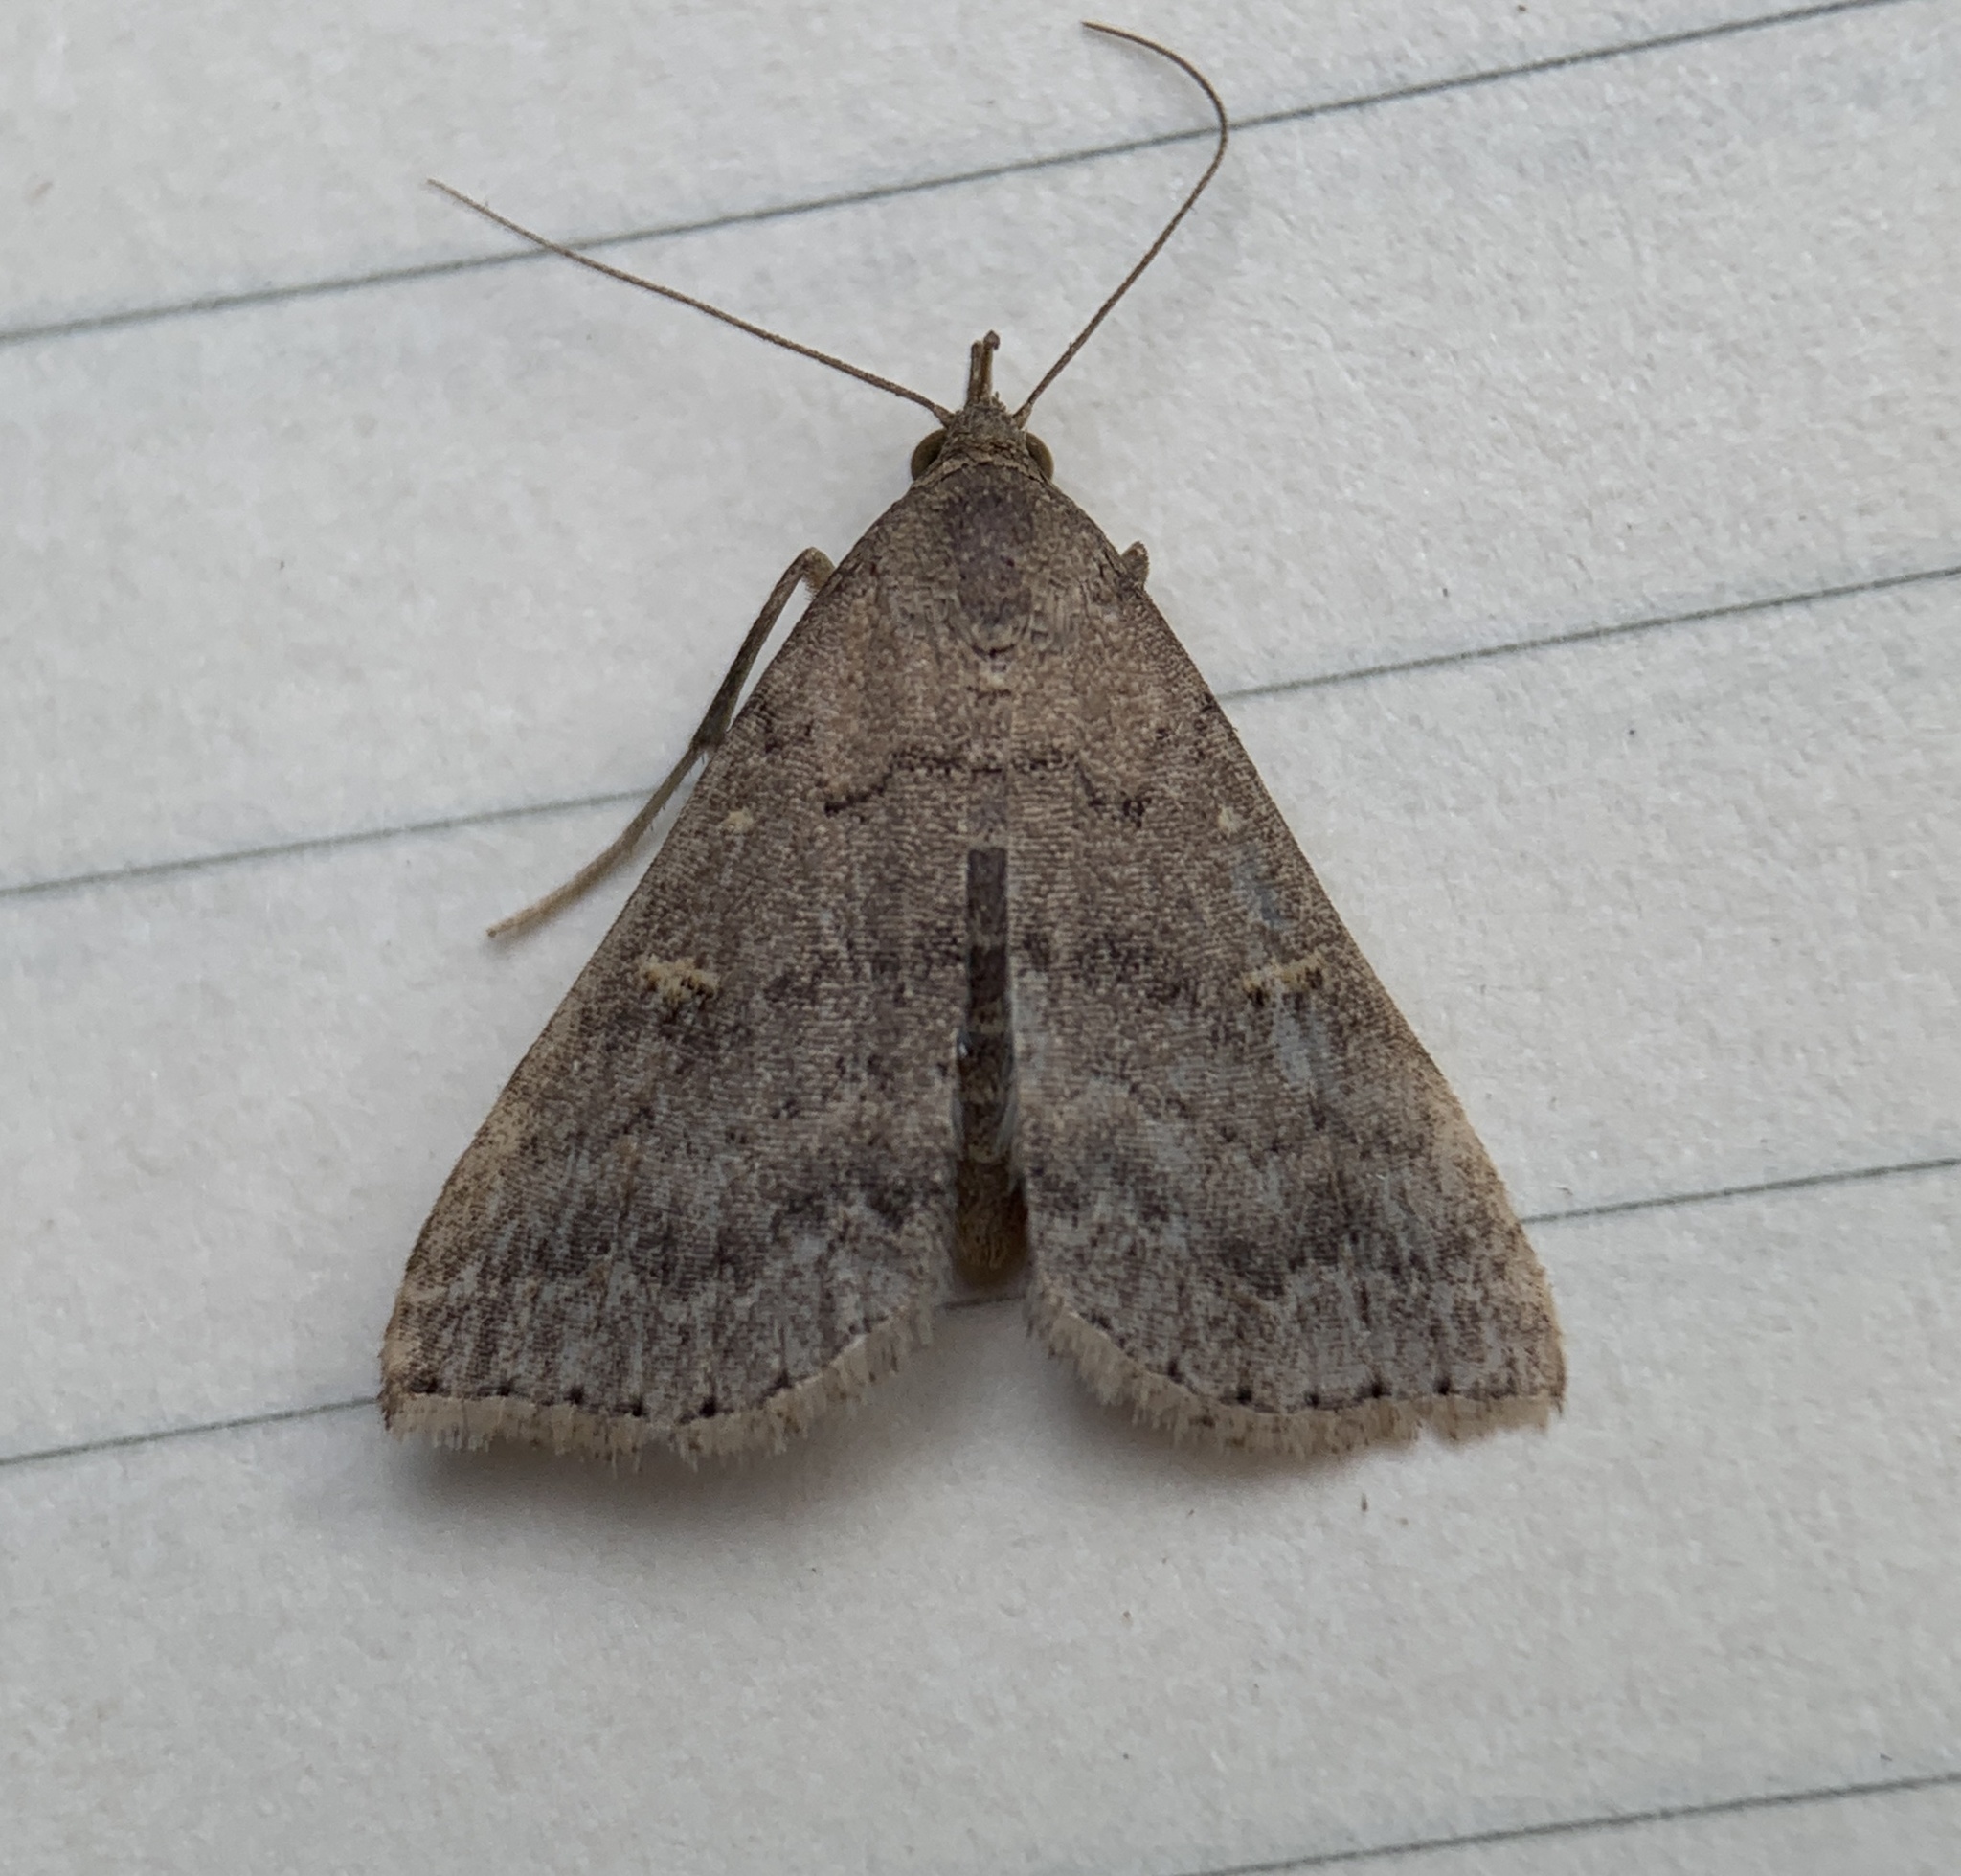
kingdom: Animalia
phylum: Arthropoda
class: Insecta
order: Lepidoptera
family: Erebidae
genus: Tetanolita
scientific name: Tetanolita floridana
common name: Florida tetanolita moth
